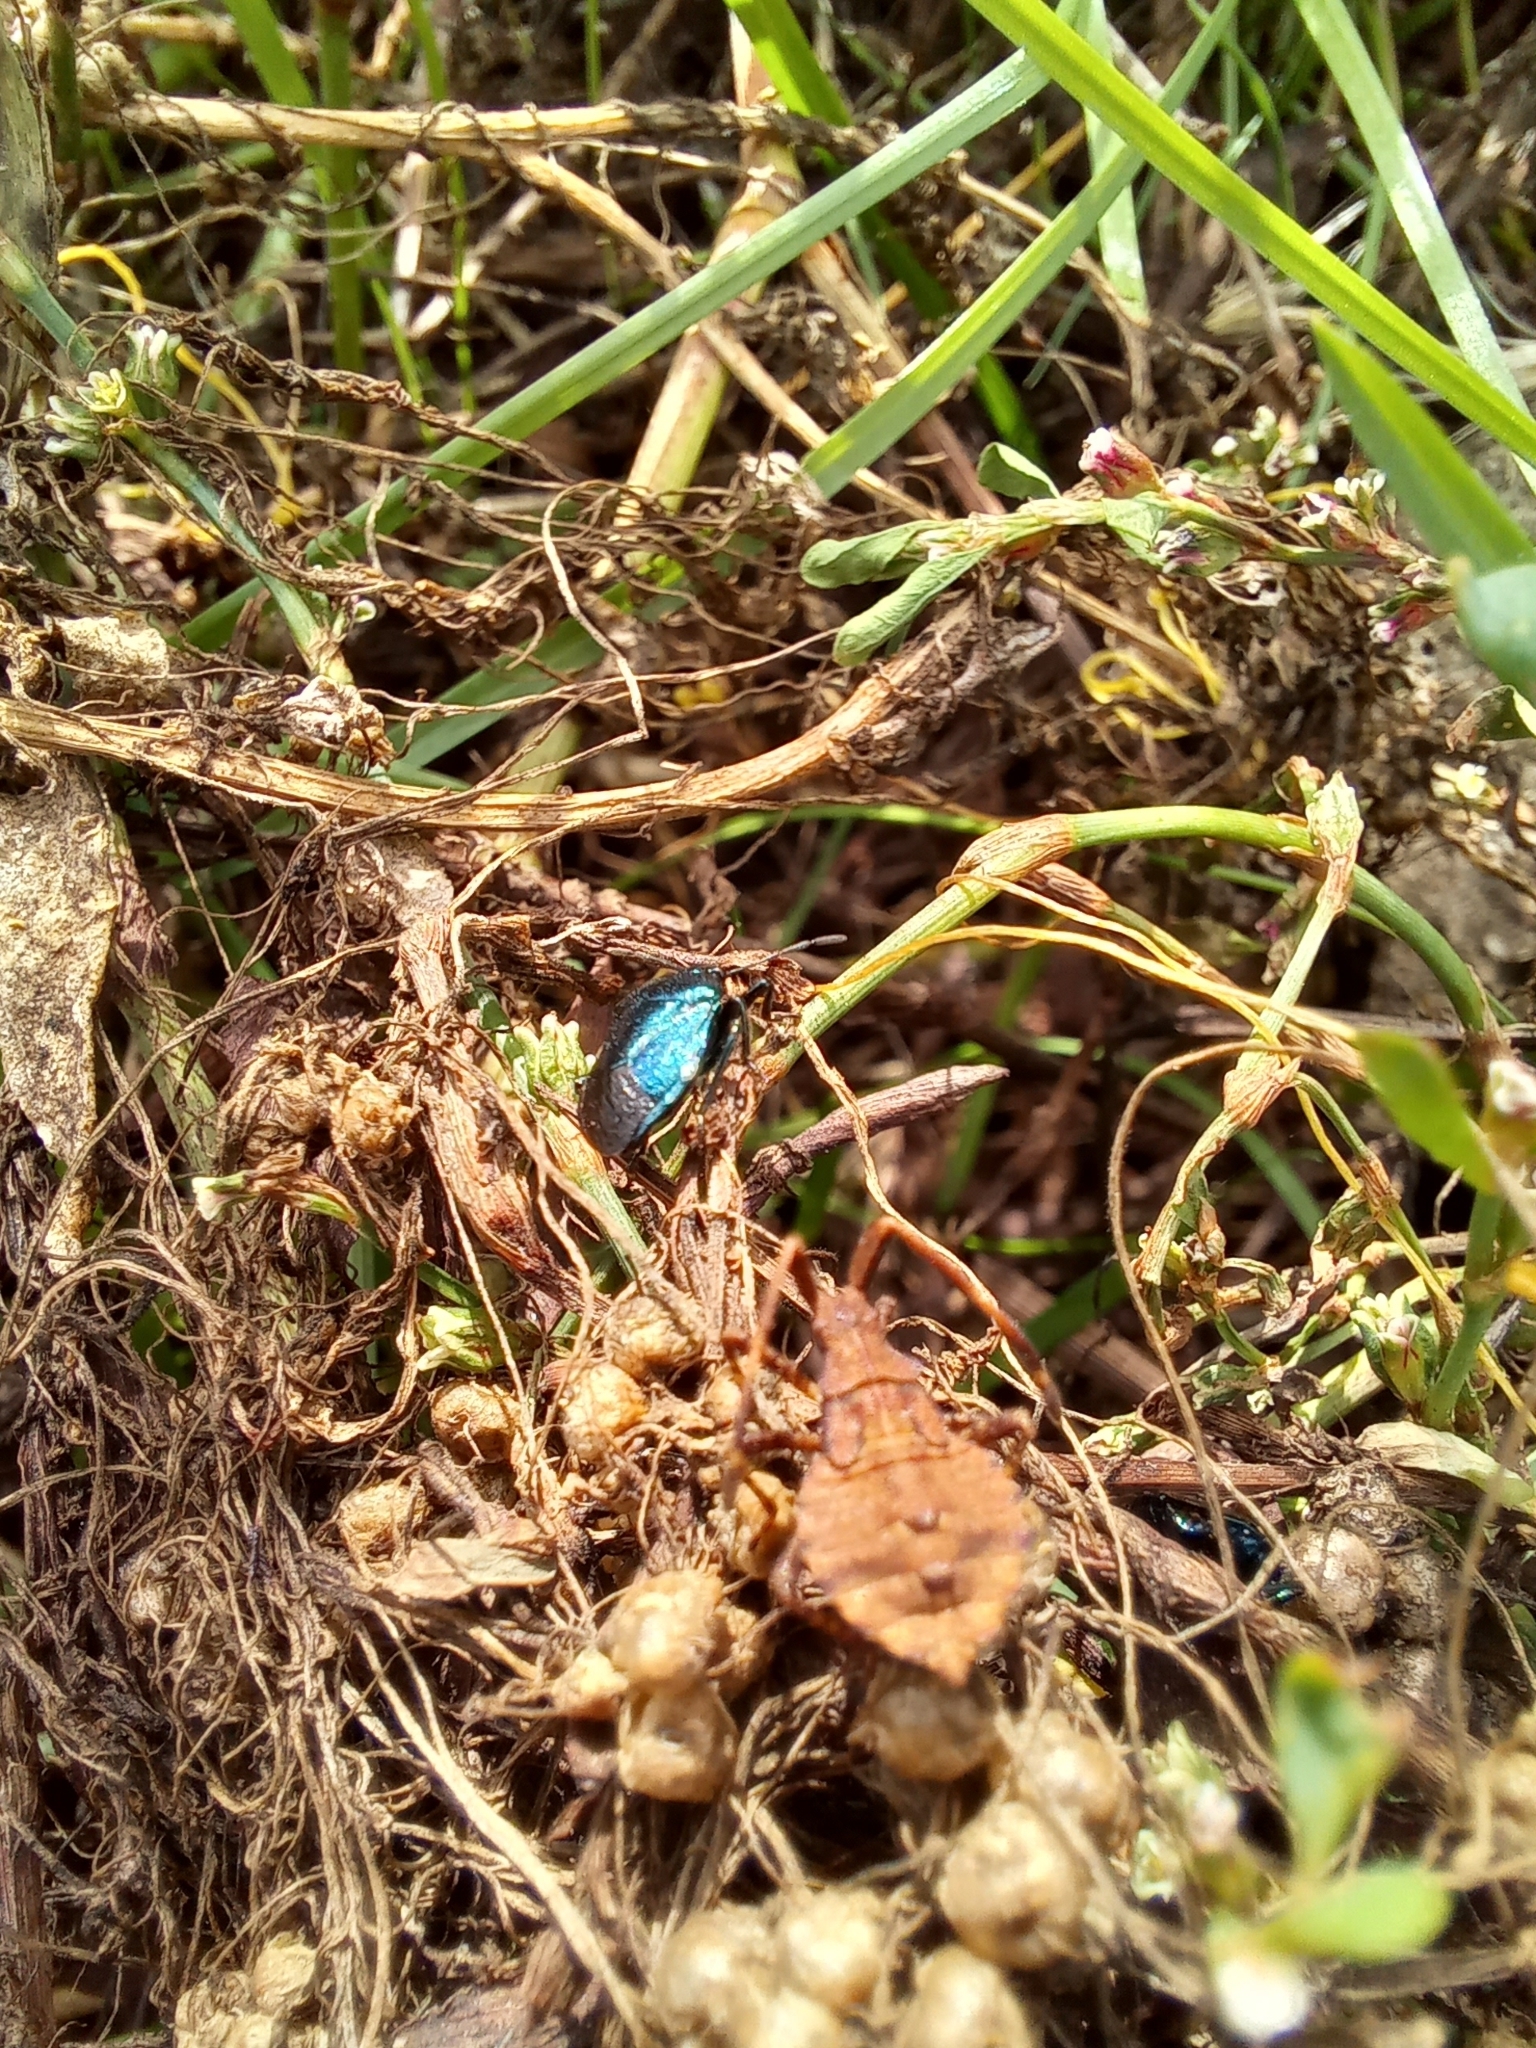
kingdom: Animalia
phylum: Arthropoda
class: Insecta
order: Hemiptera
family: Pentatomidae
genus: Zicrona
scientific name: Zicrona caerulea
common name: Blue shieldbug
